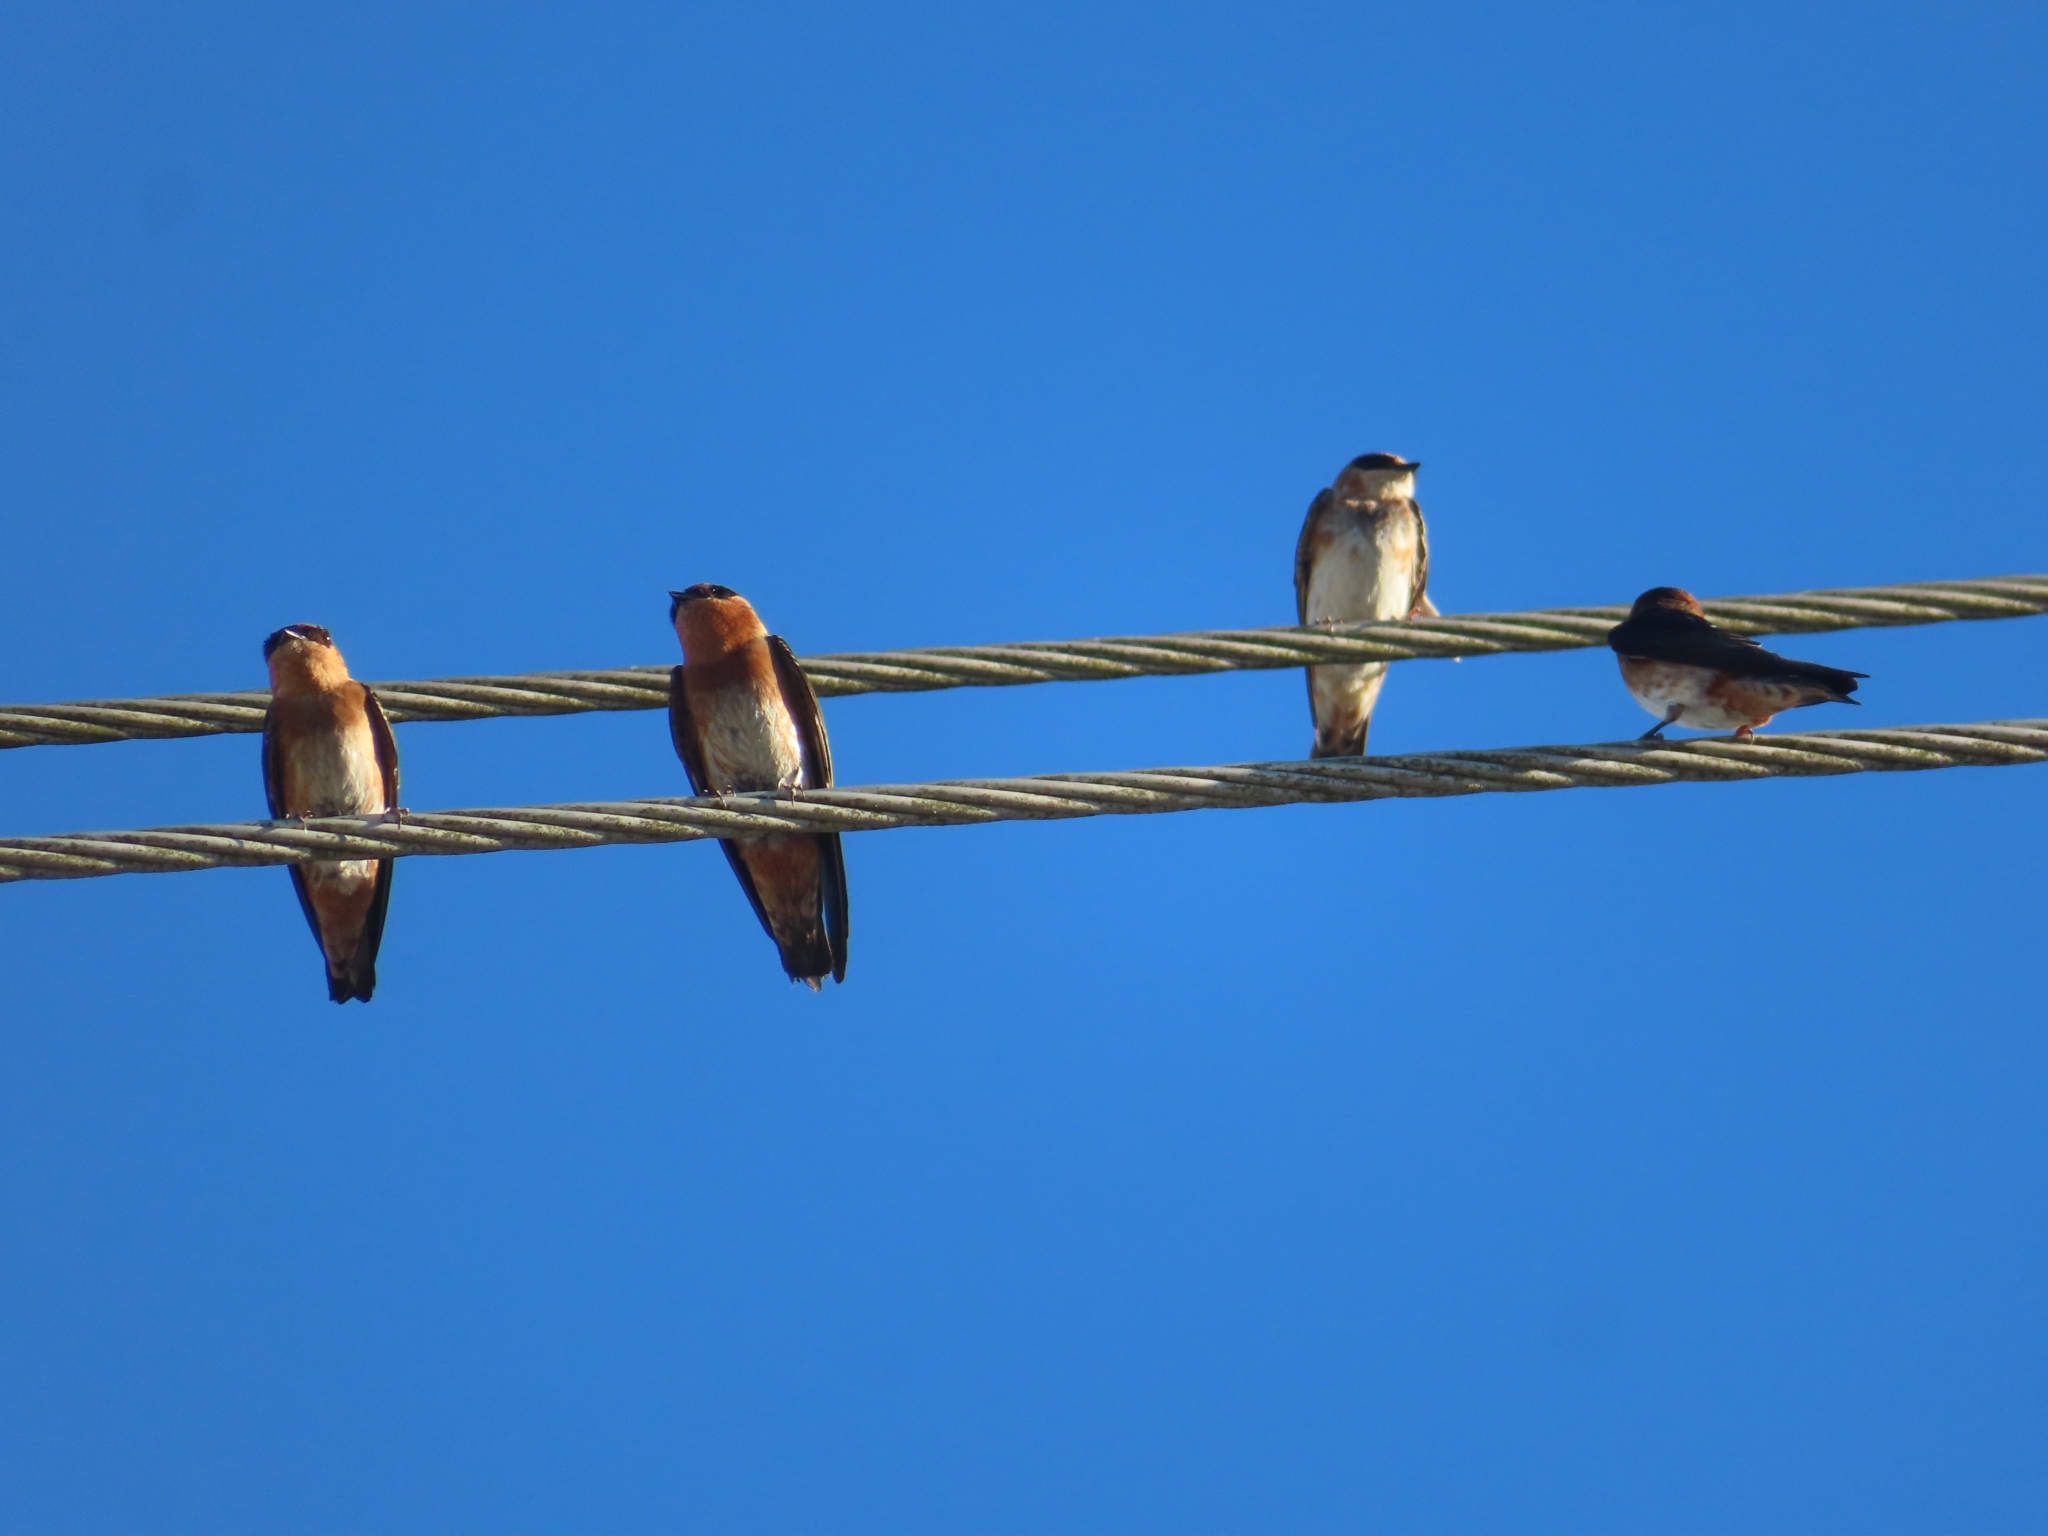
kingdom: Animalia
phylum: Chordata
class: Aves
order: Passeriformes
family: Hirundinidae
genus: Petrochelidon
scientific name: Petrochelidon fulva
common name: Cave swallow
